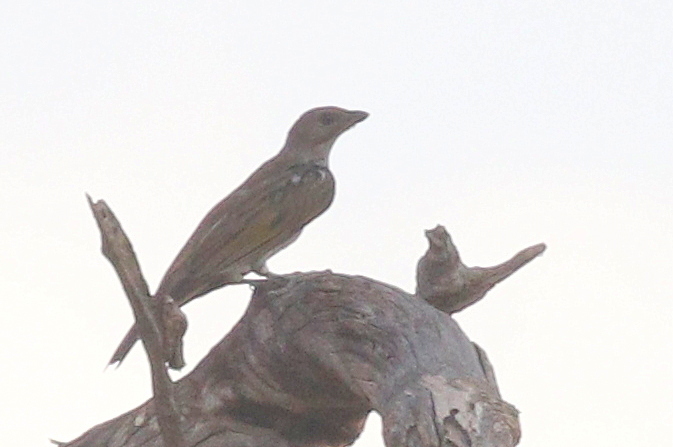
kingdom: Animalia
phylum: Chordata
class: Aves
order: Piciformes
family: Indicatoridae
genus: Indicator
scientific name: Indicator minor
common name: Lesser honeyguide
